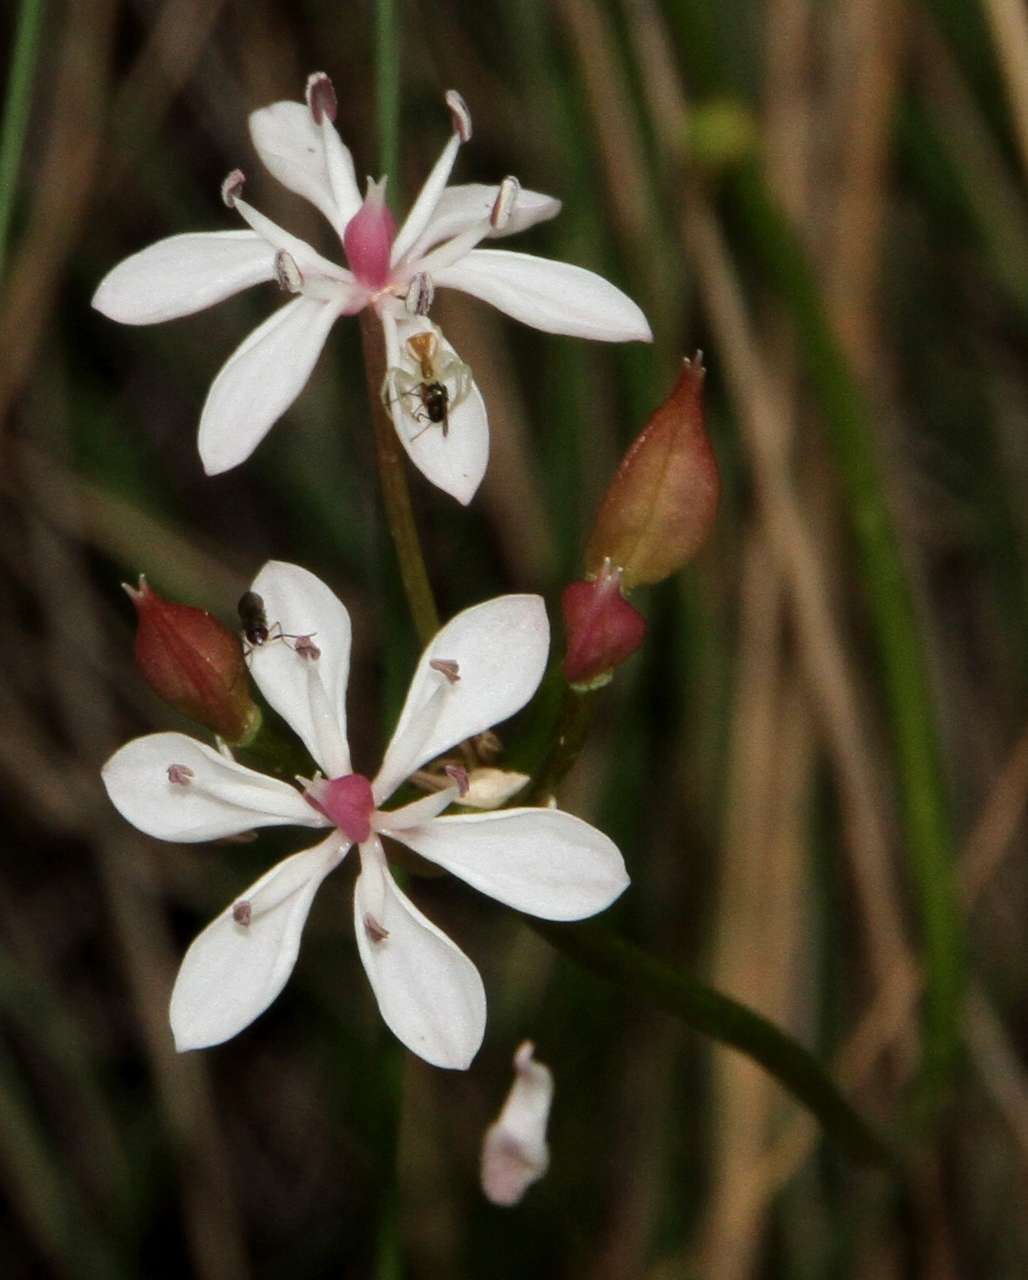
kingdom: Plantae
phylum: Tracheophyta
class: Liliopsida
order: Liliales
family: Colchicaceae
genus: Burchardia
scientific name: Burchardia umbellata
